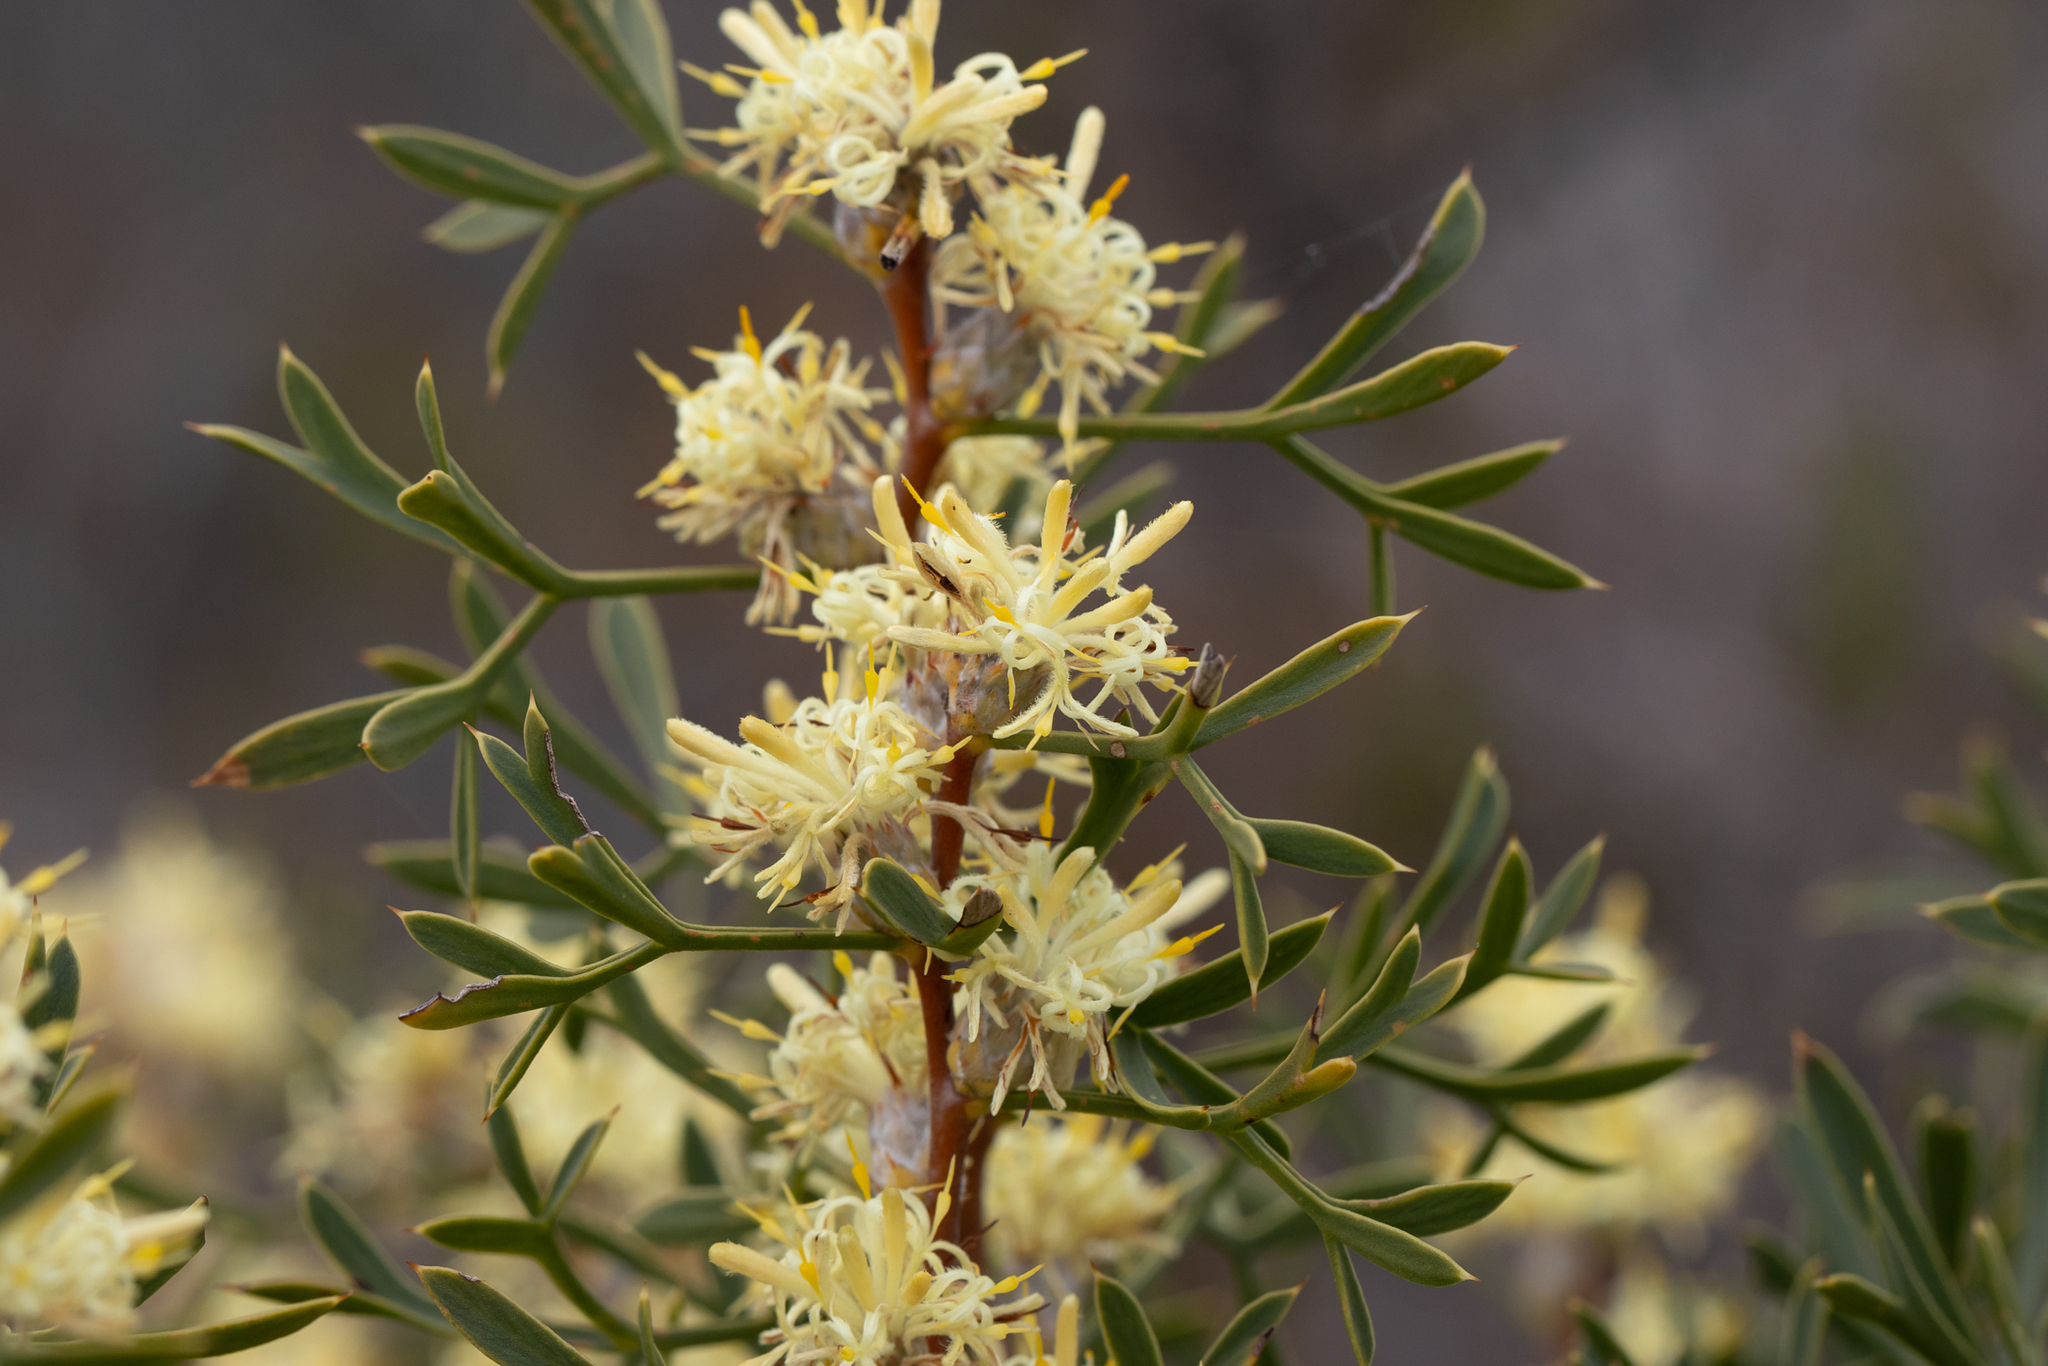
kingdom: Plantae
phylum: Tracheophyta
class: Magnoliopsida
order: Proteales
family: Proteaceae
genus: Petrophile
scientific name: Petrophile squamata
